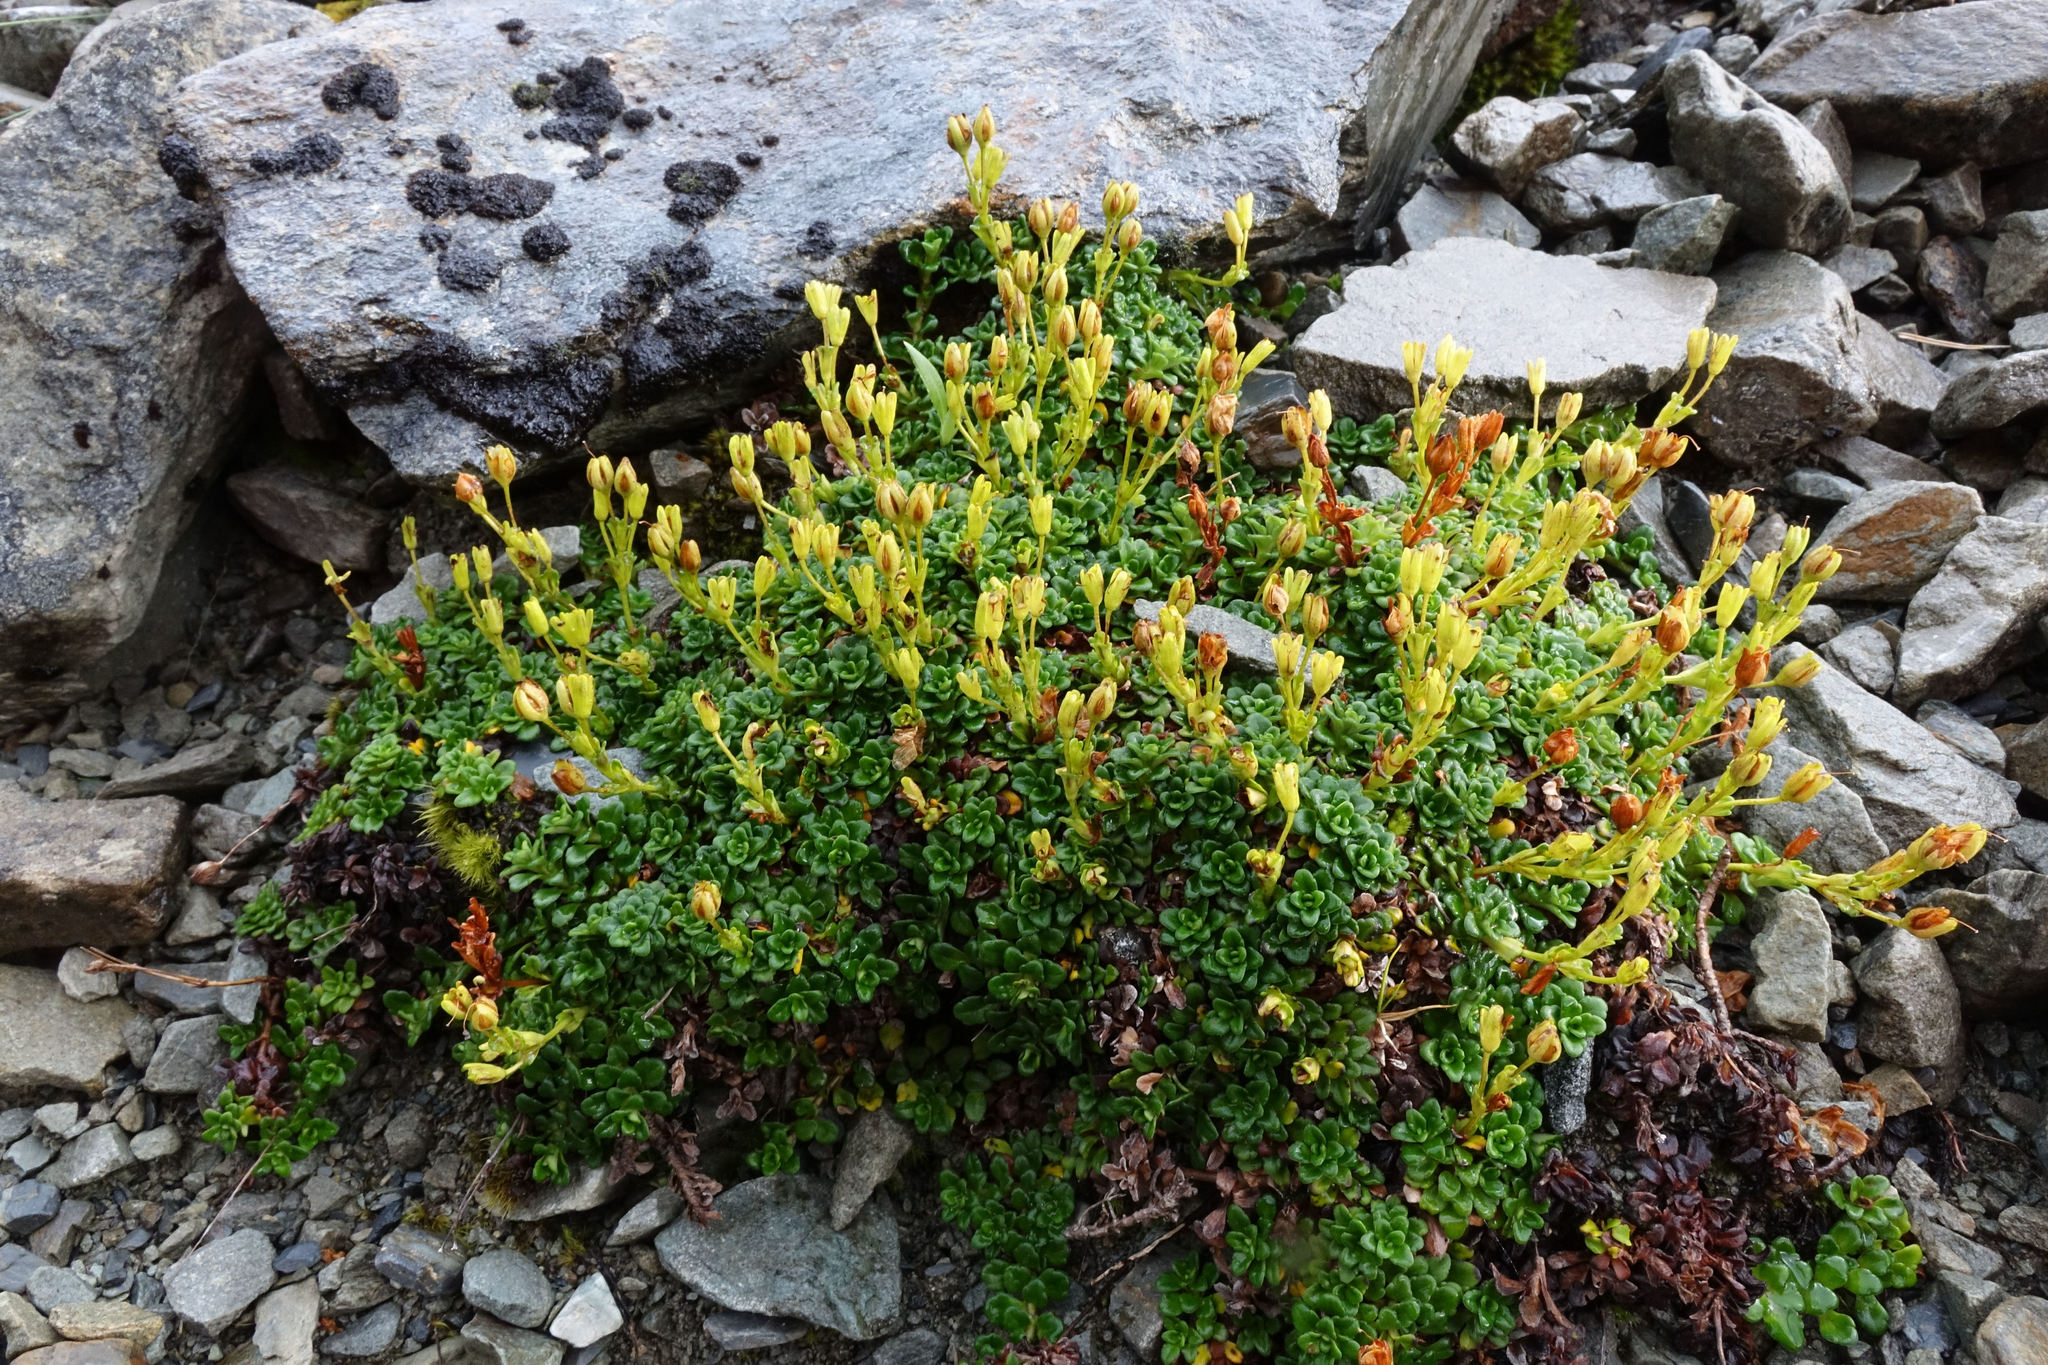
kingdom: Plantae
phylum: Tracheophyta
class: Magnoliopsida
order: Lamiales
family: Plantaginaceae
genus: Ourisia
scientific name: Ourisia caespitosa
